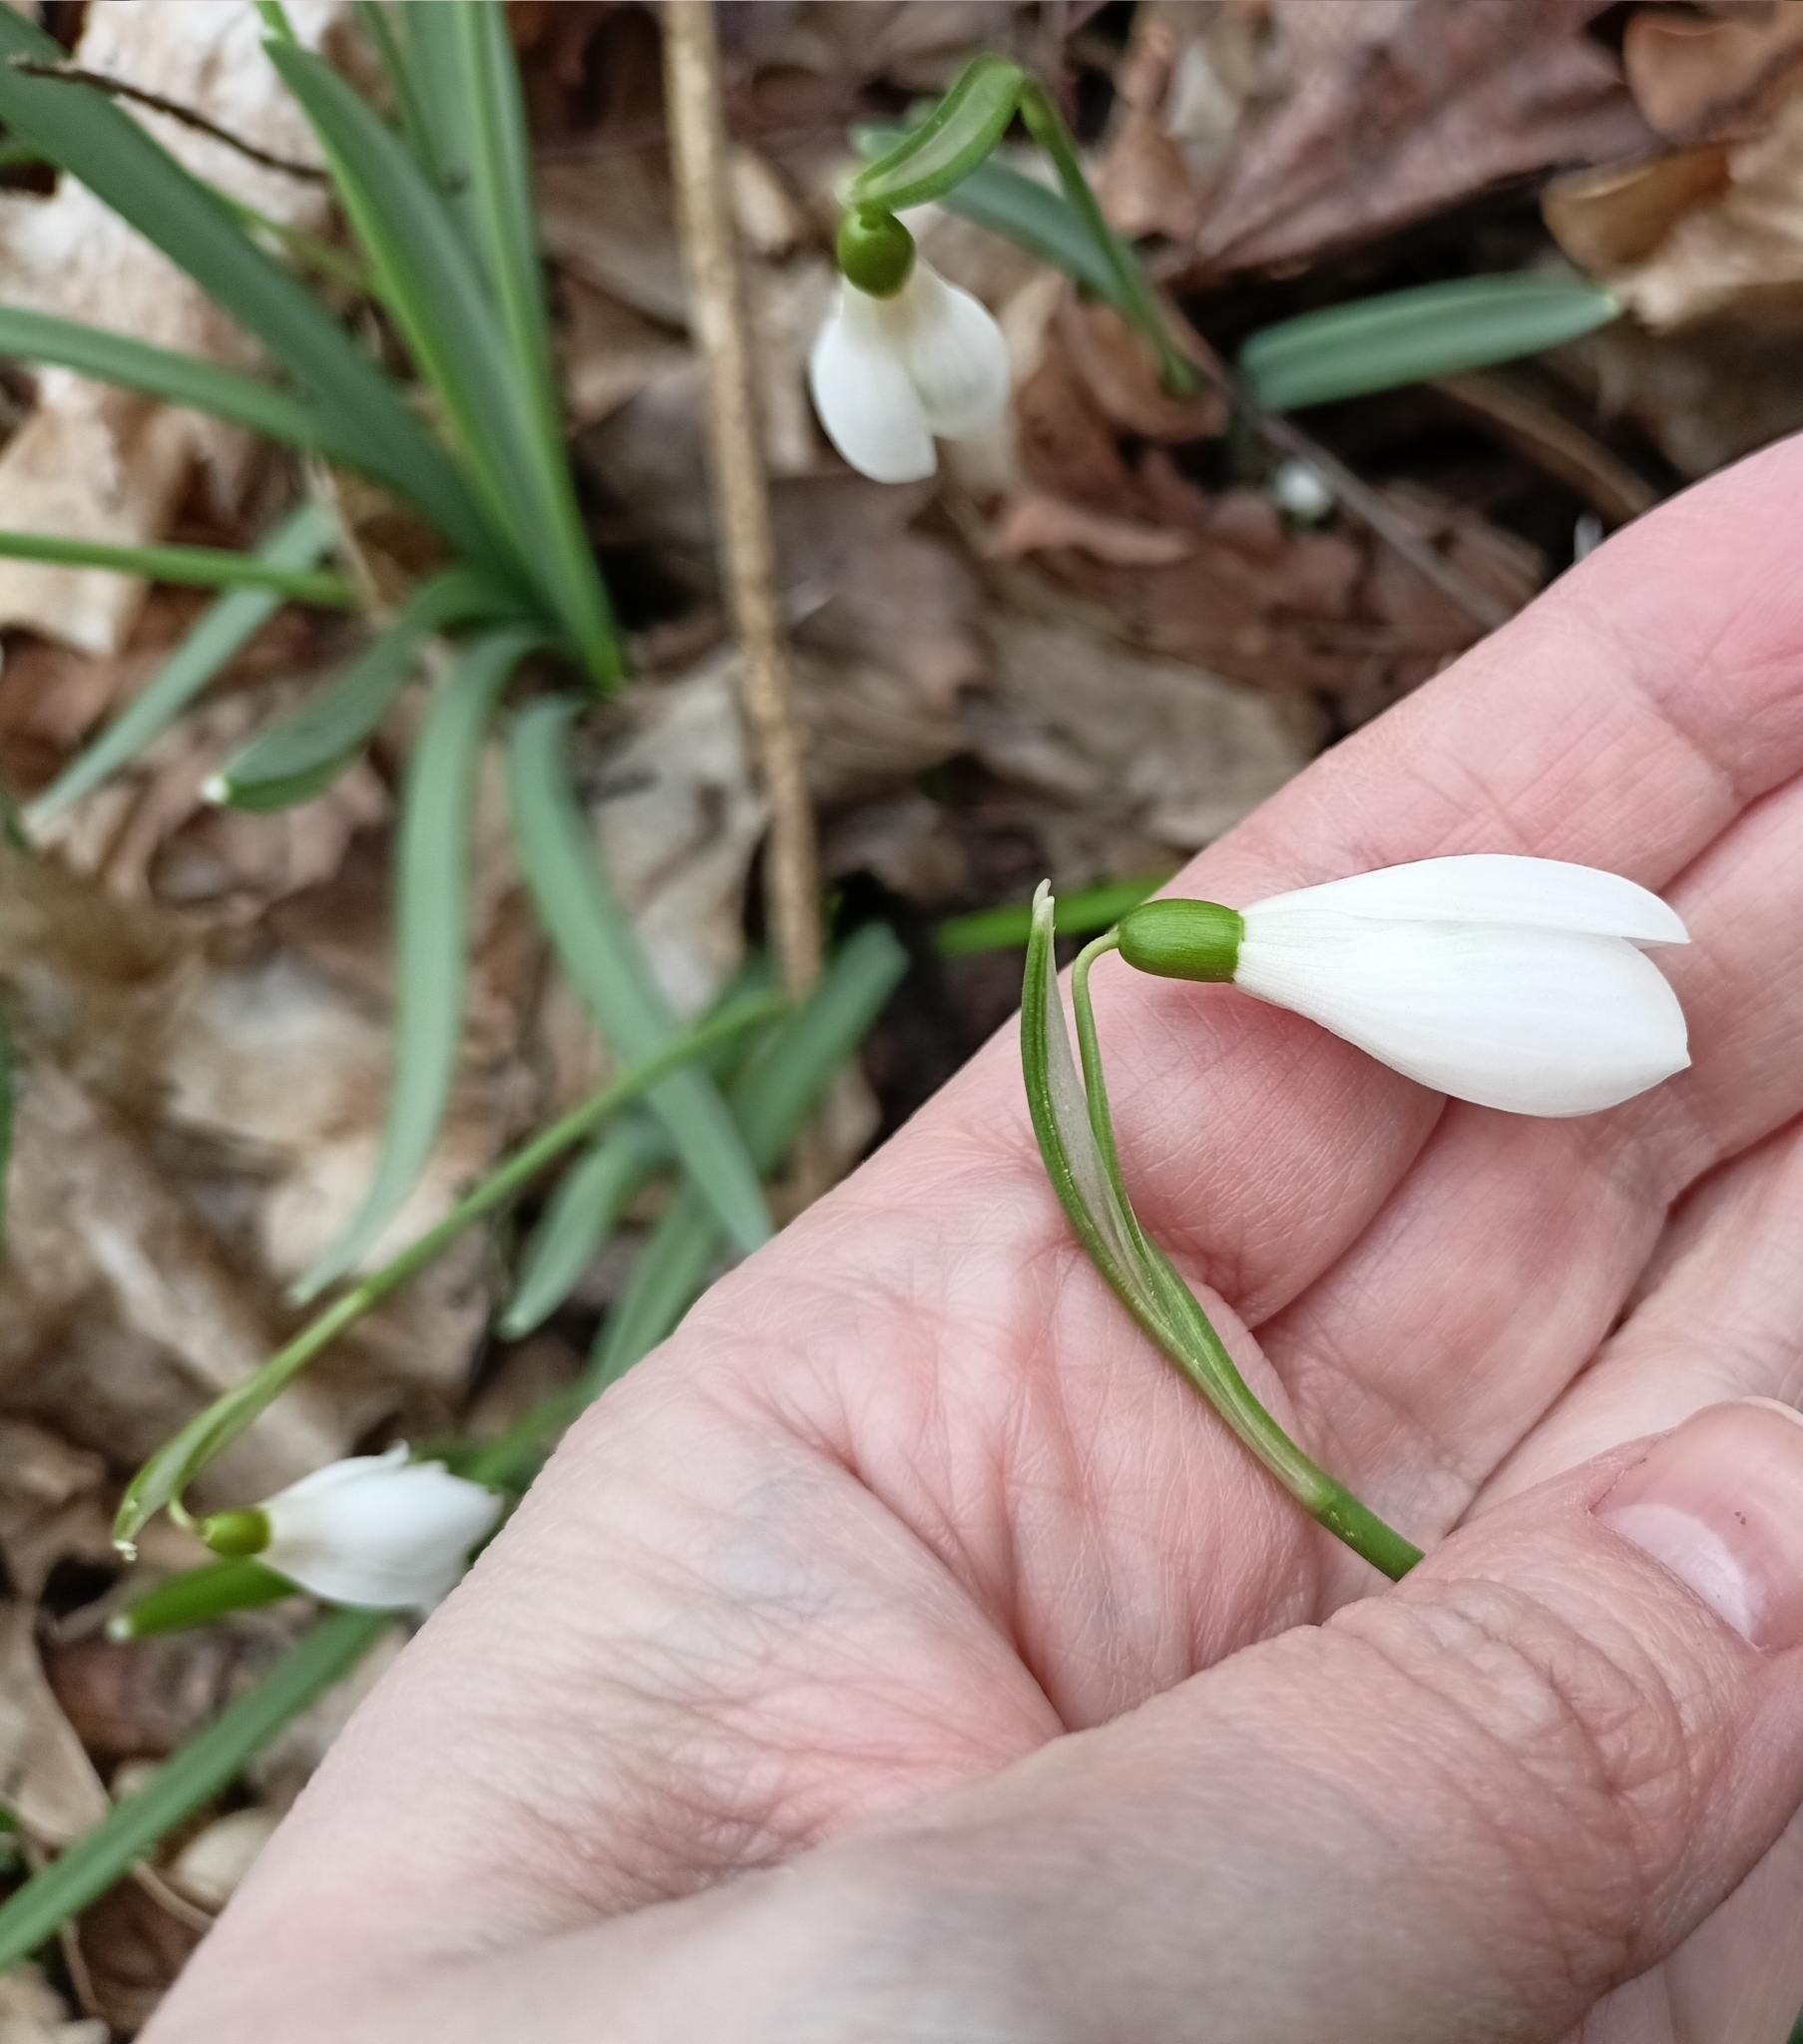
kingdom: Plantae
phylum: Tracheophyta
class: Liliopsida
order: Asparagales
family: Amaryllidaceae
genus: Galanthus
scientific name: Galanthus nivalis
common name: Snowdrop
